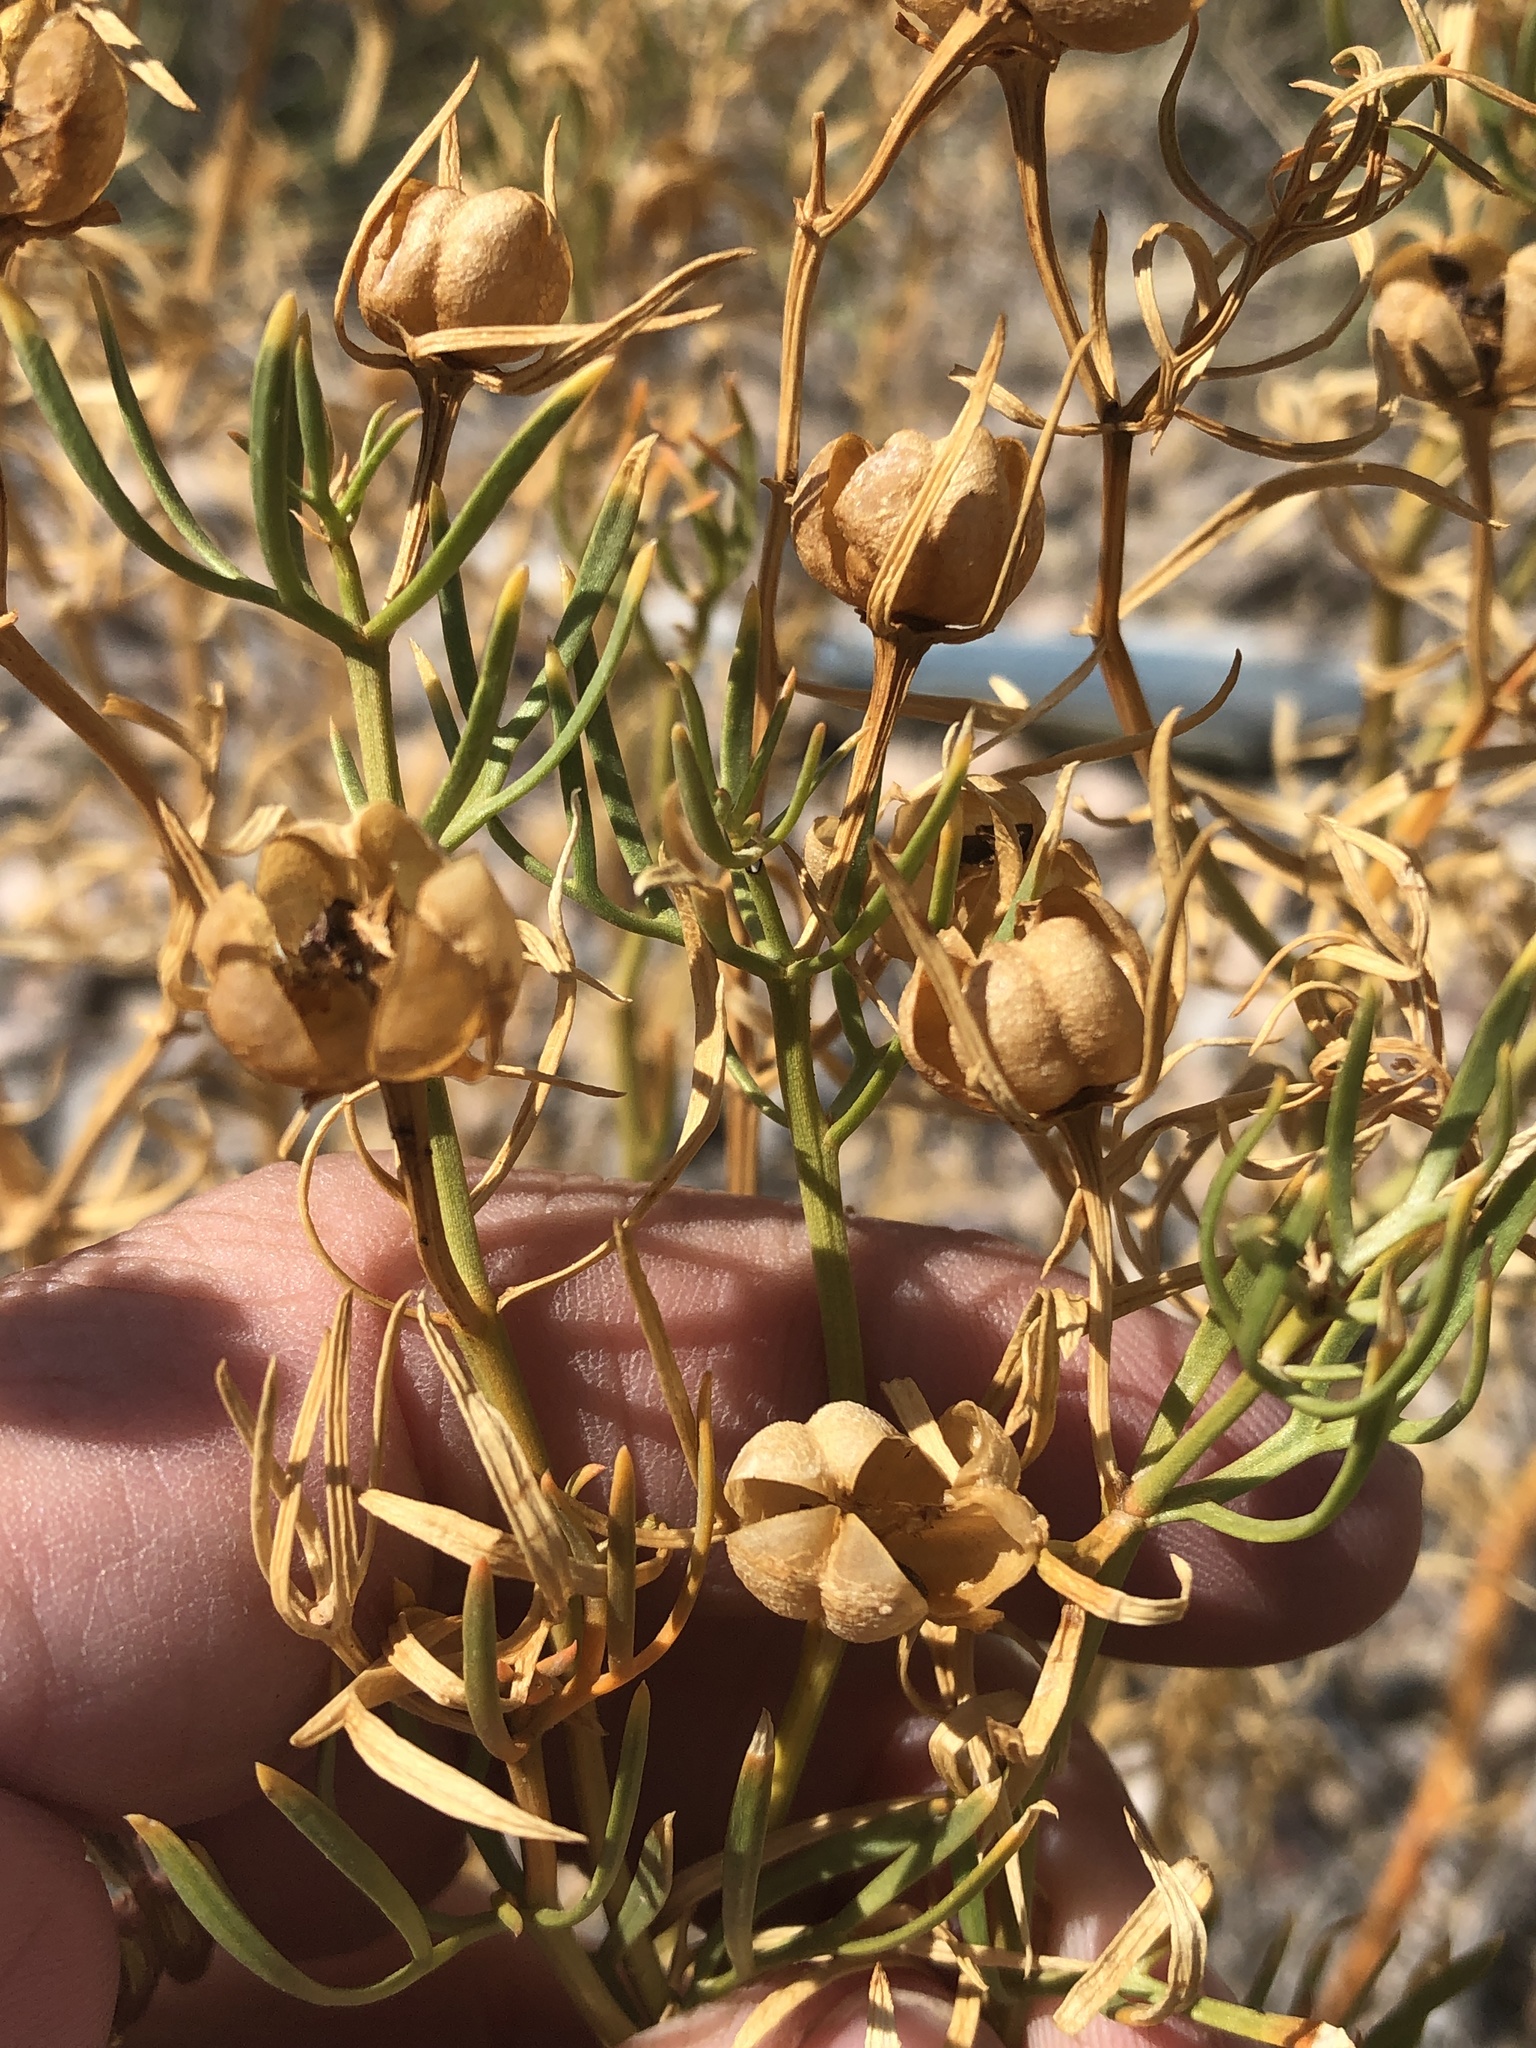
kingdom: Plantae
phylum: Tracheophyta
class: Magnoliopsida
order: Sapindales
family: Tetradiclidaceae
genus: Peganum
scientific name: Peganum harmala
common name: Harmal peganum
